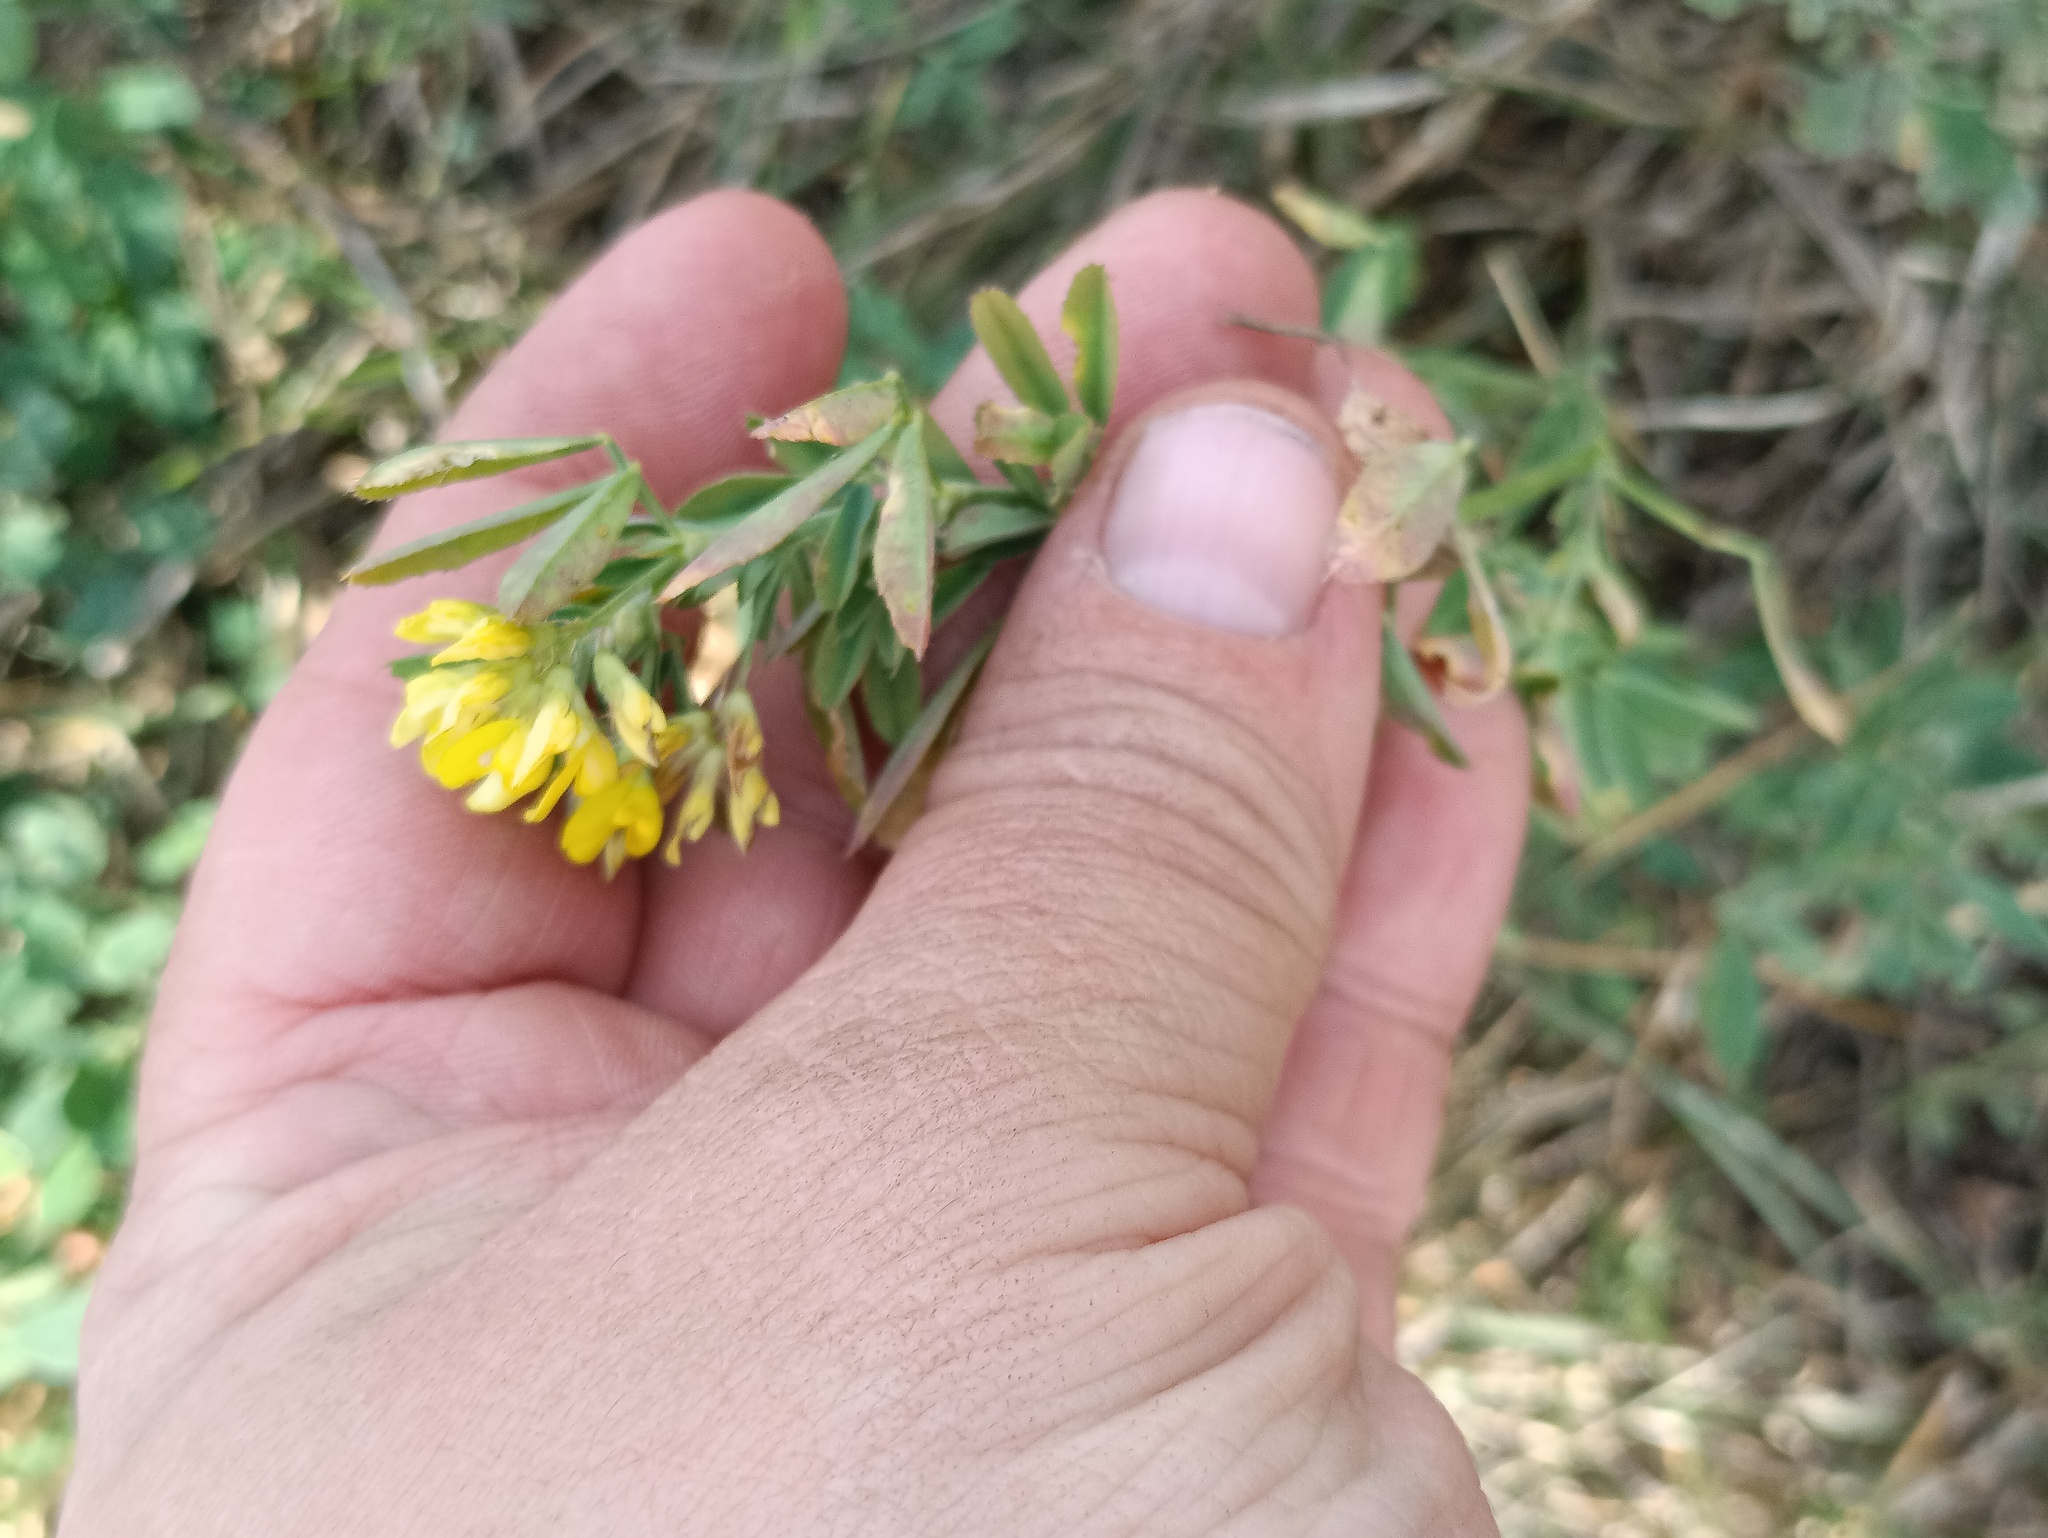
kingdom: Plantae
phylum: Tracheophyta
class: Magnoliopsida
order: Fabales
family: Fabaceae
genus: Medicago
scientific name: Medicago falcata
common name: Sickle medick
